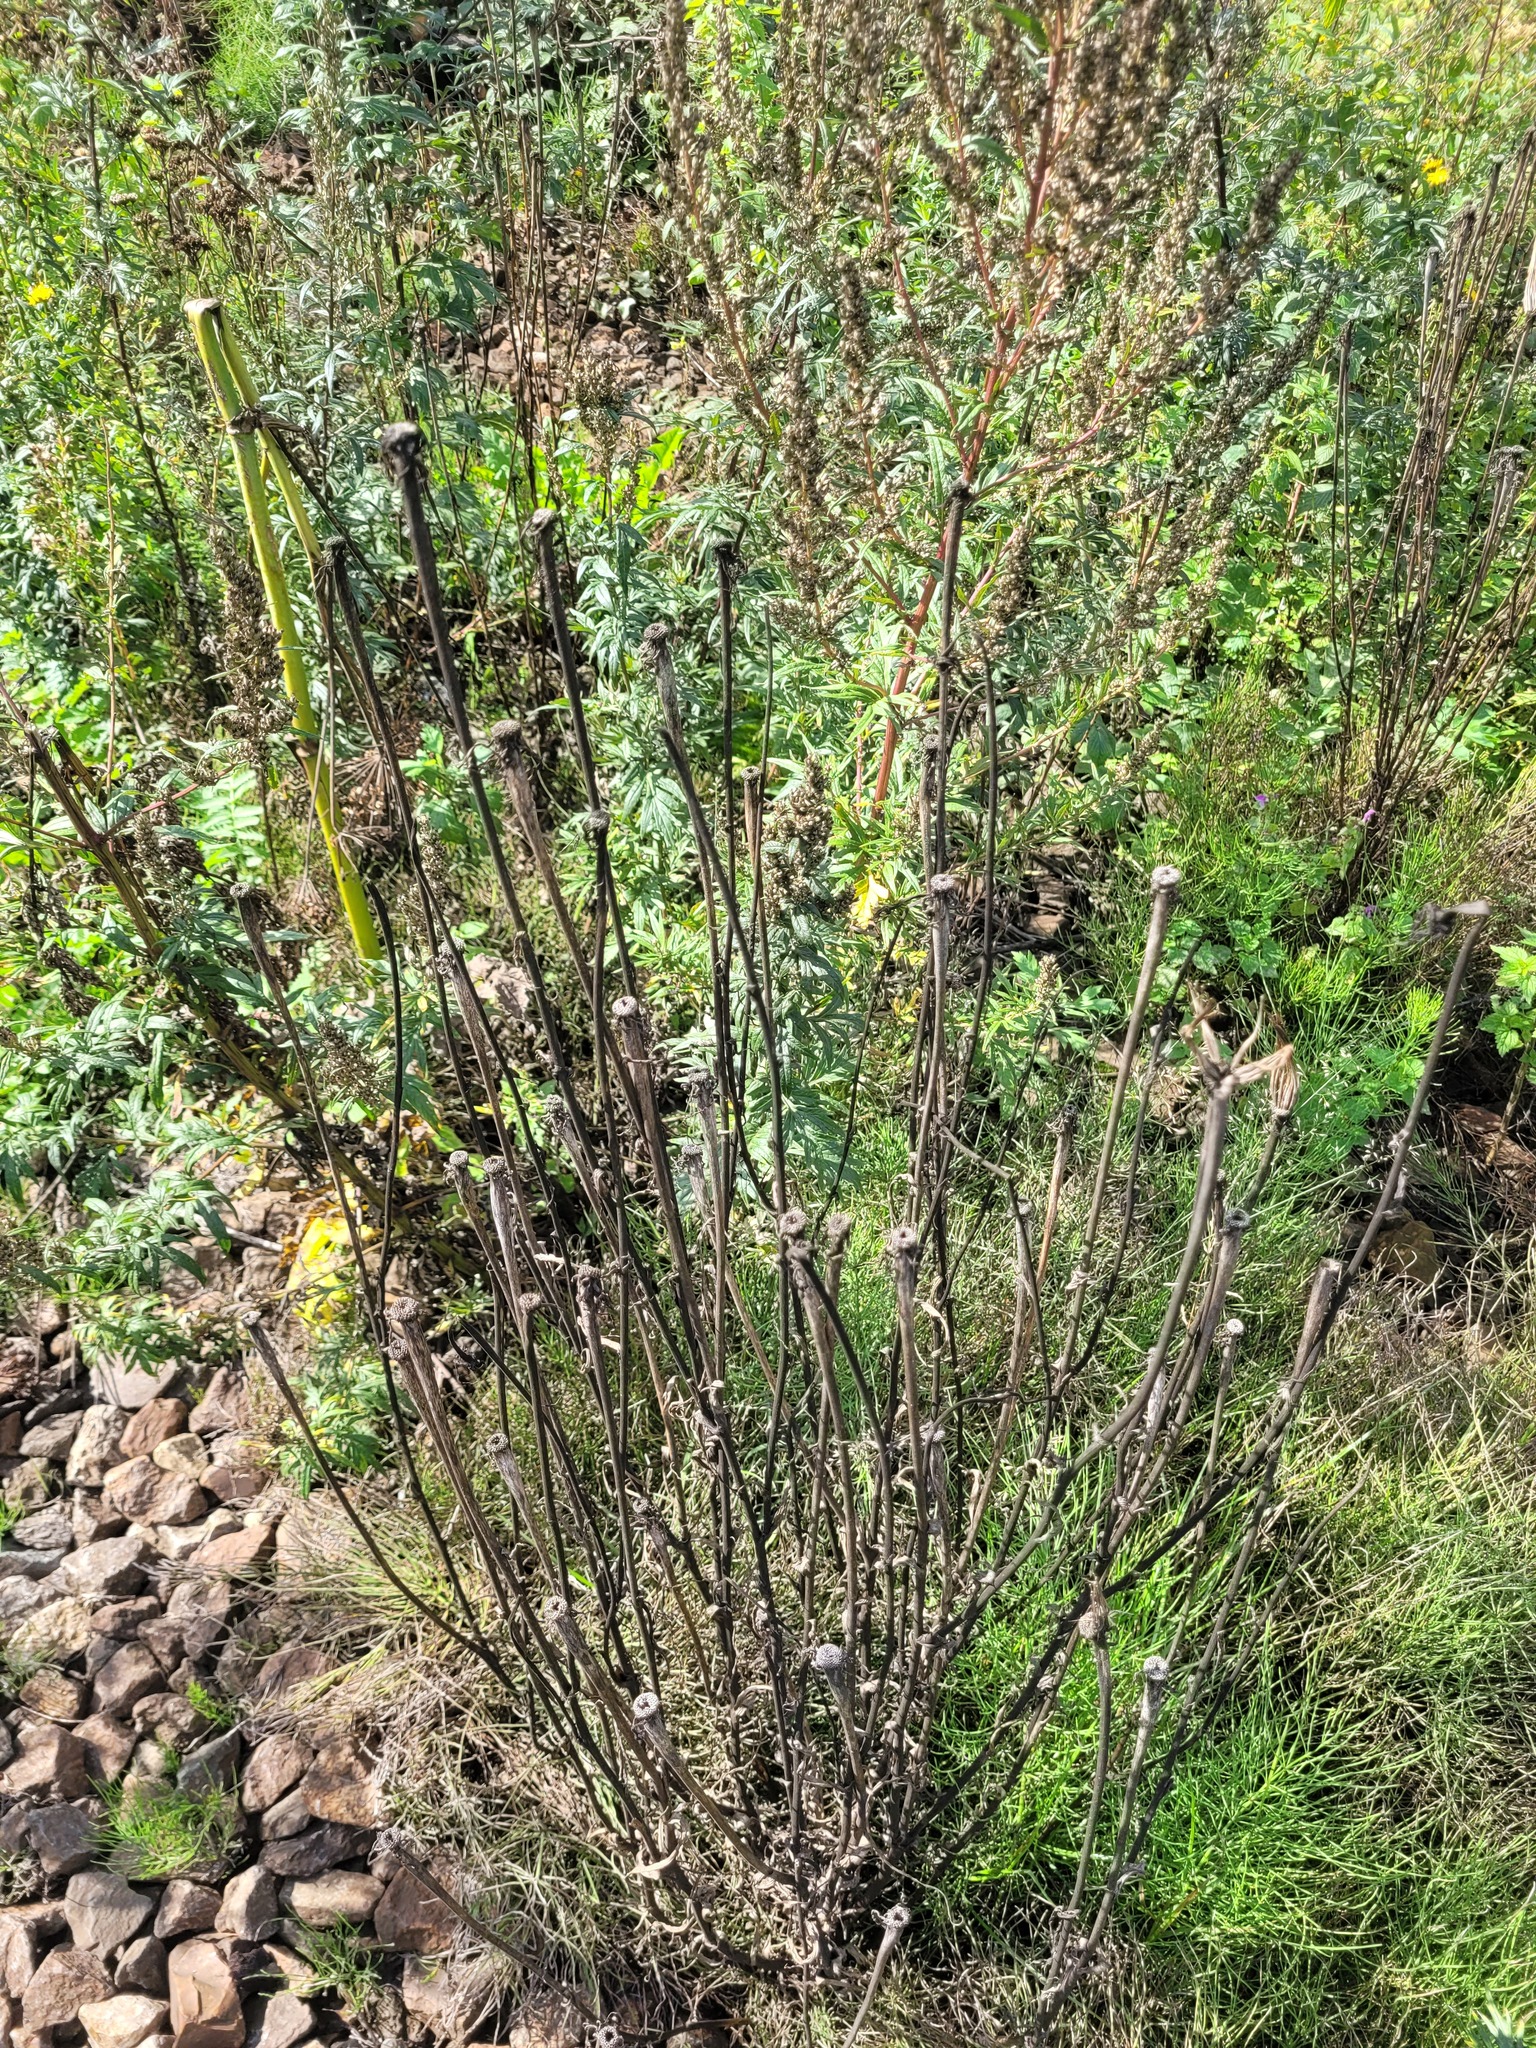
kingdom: Plantae
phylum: Tracheophyta
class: Magnoliopsida
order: Asterales
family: Asteraceae
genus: Tragopogon
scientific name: Tragopogon dubius
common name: Yellow salsify
